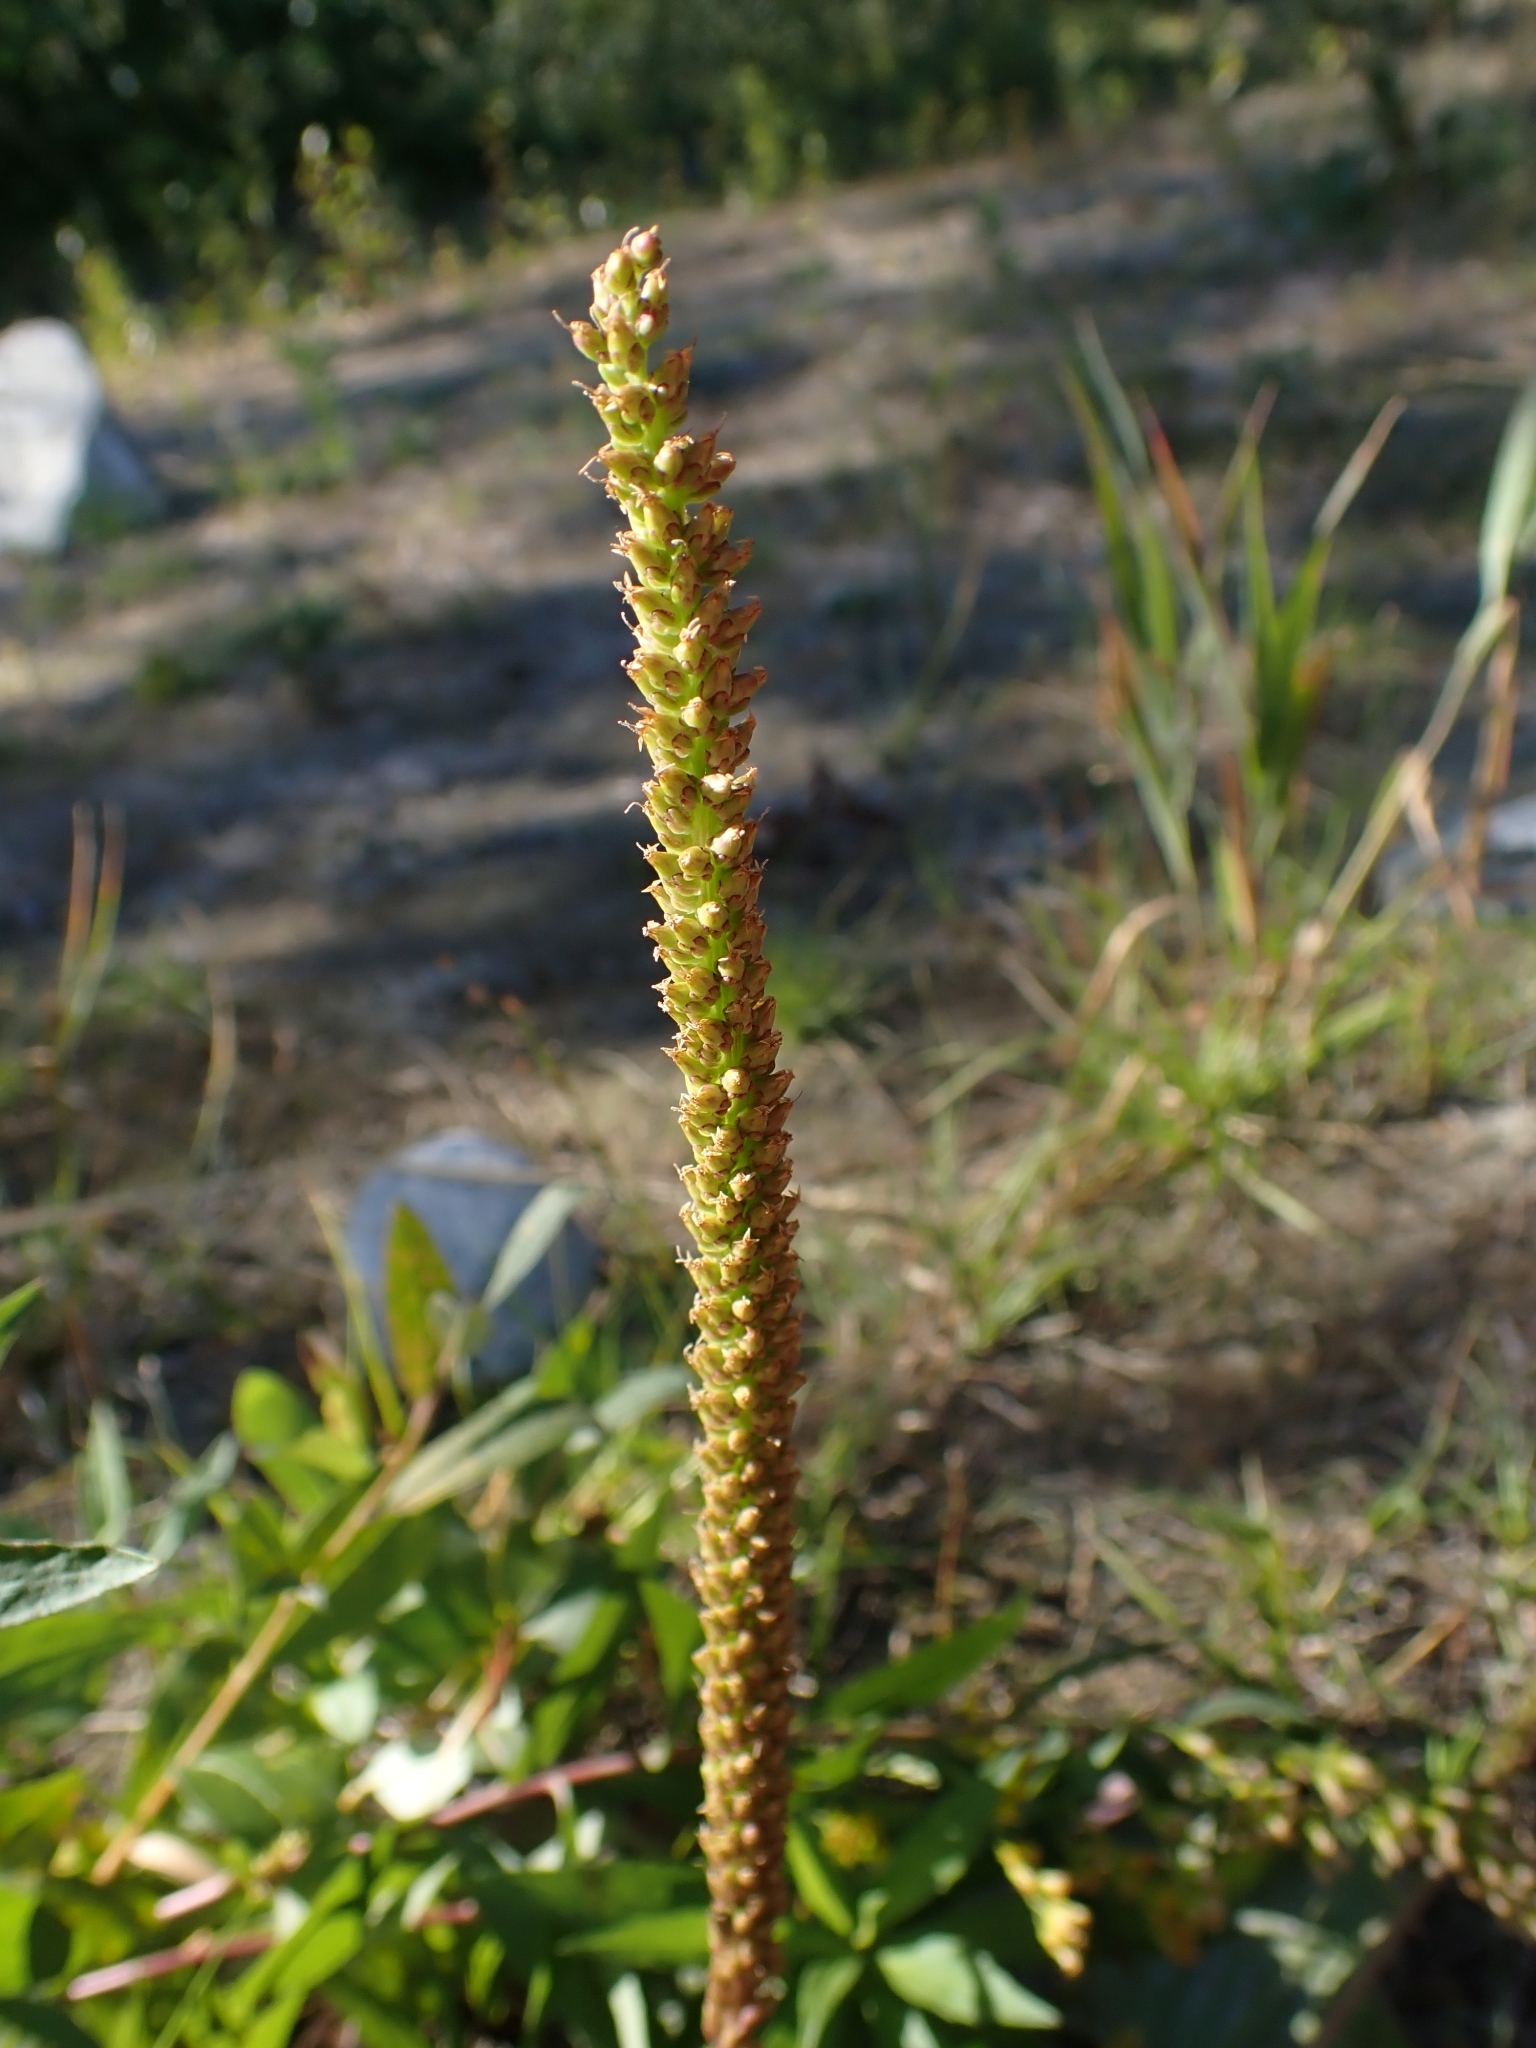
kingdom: Plantae
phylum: Tracheophyta
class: Magnoliopsida
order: Lamiales
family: Plantaginaceae
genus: Plantago
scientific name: Plantago major
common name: Common plantain
